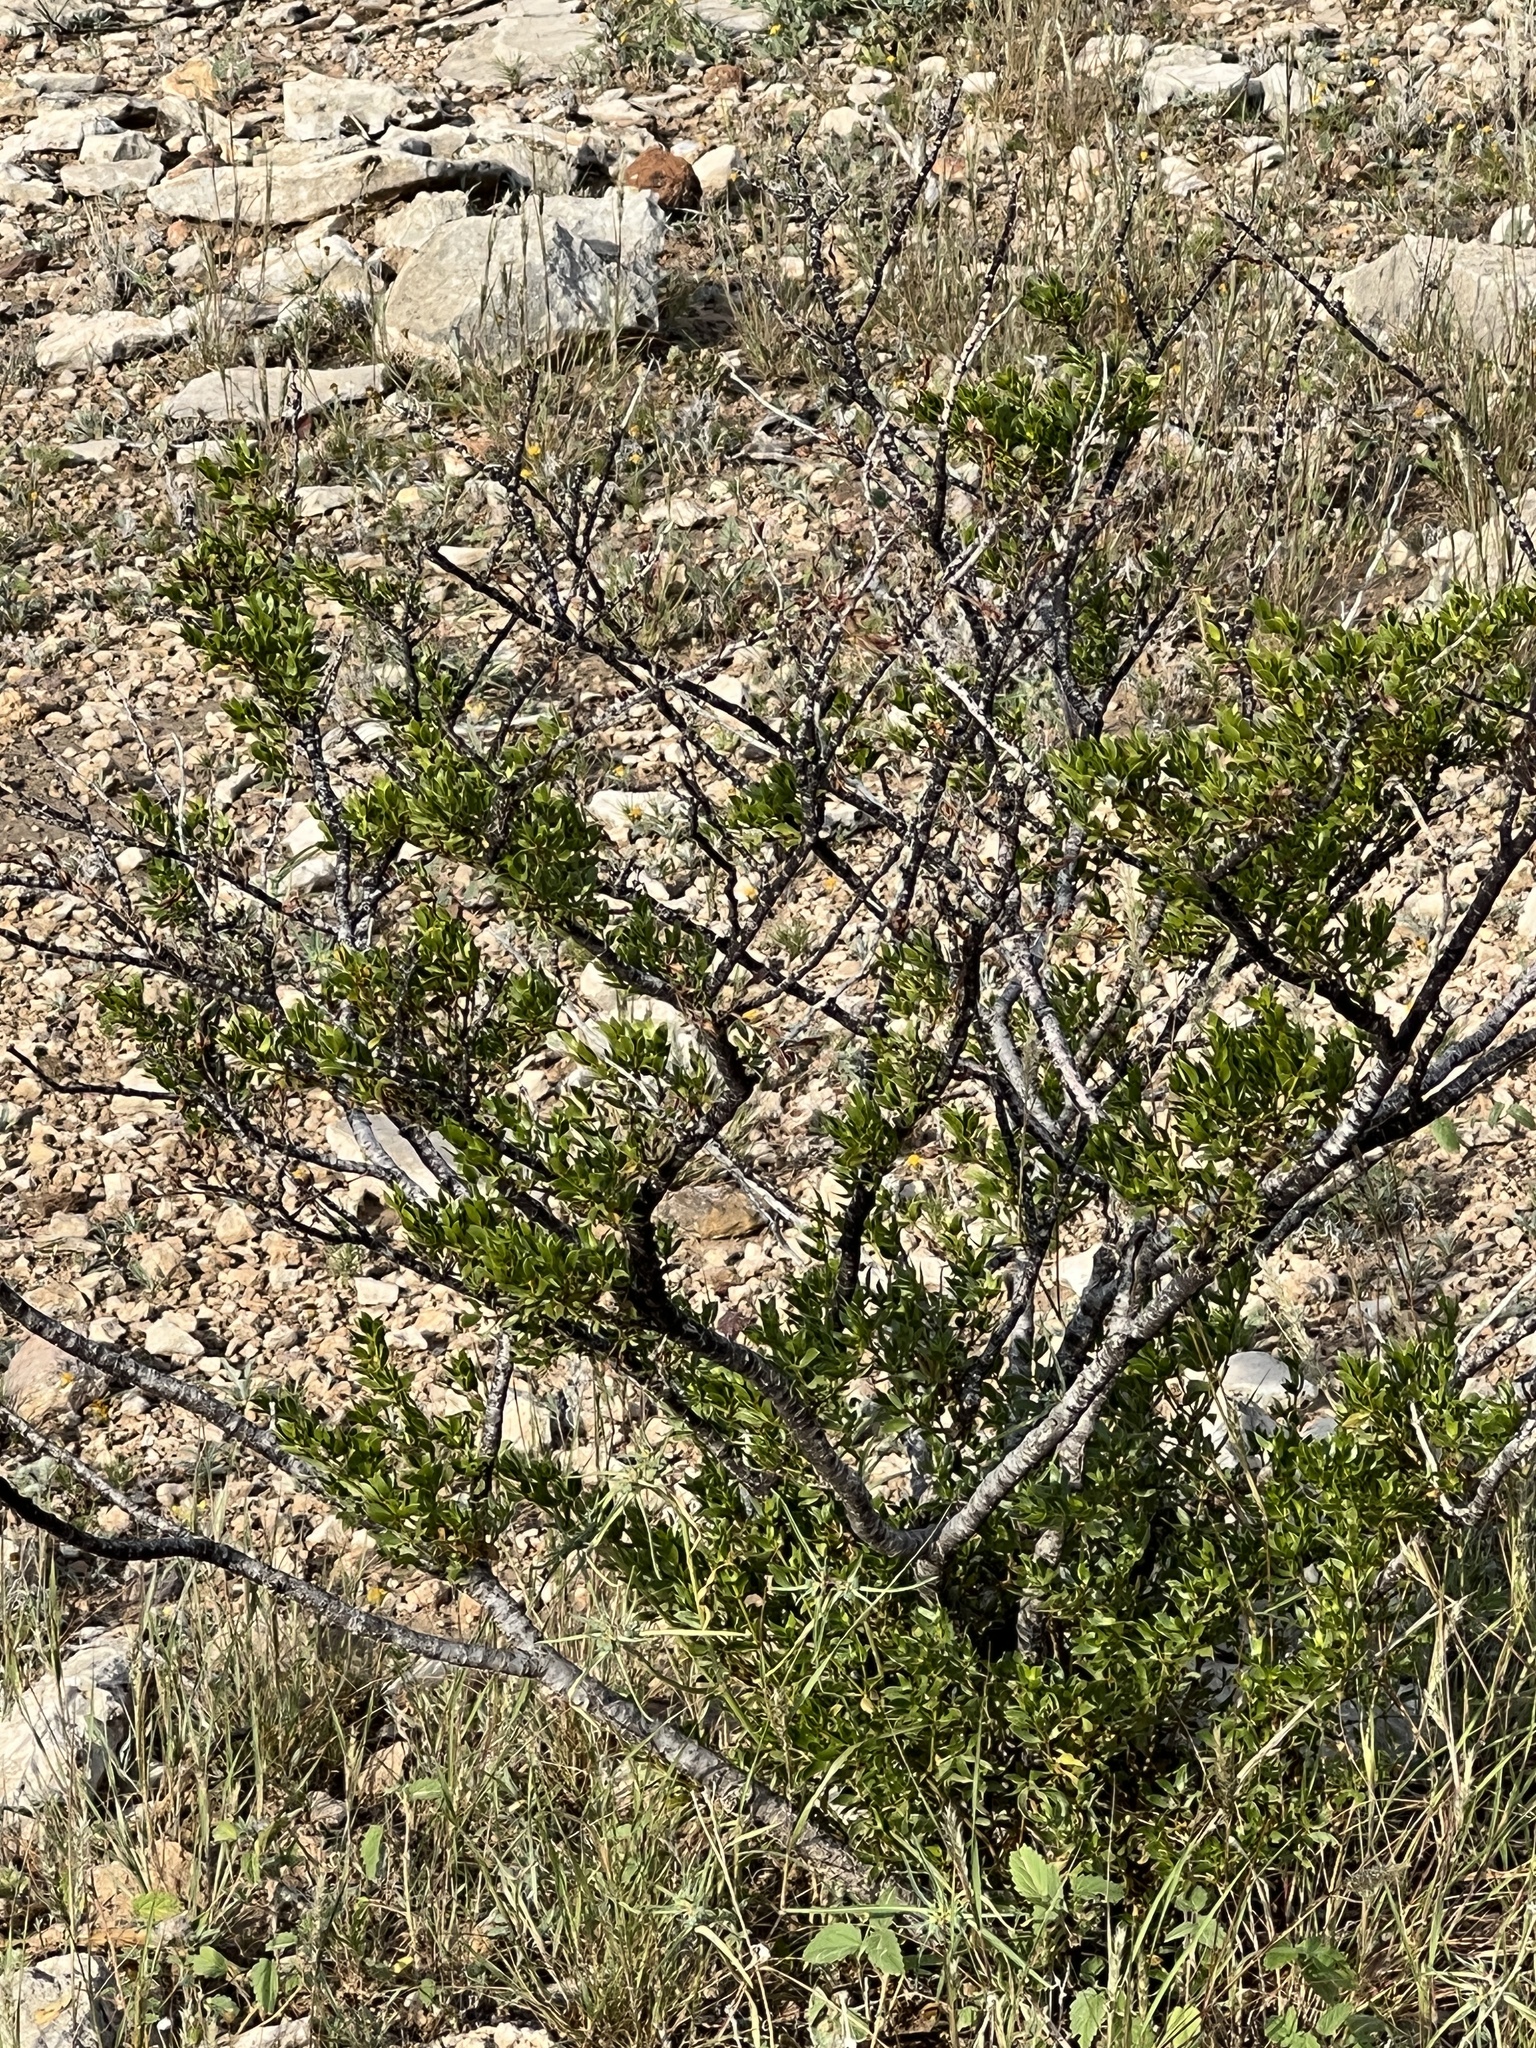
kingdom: Plantae
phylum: Tracheophyta
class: Magnoliopsida
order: Zygophyllales
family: Zygophyllaceae
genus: Larrea
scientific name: Larrea tridentata
